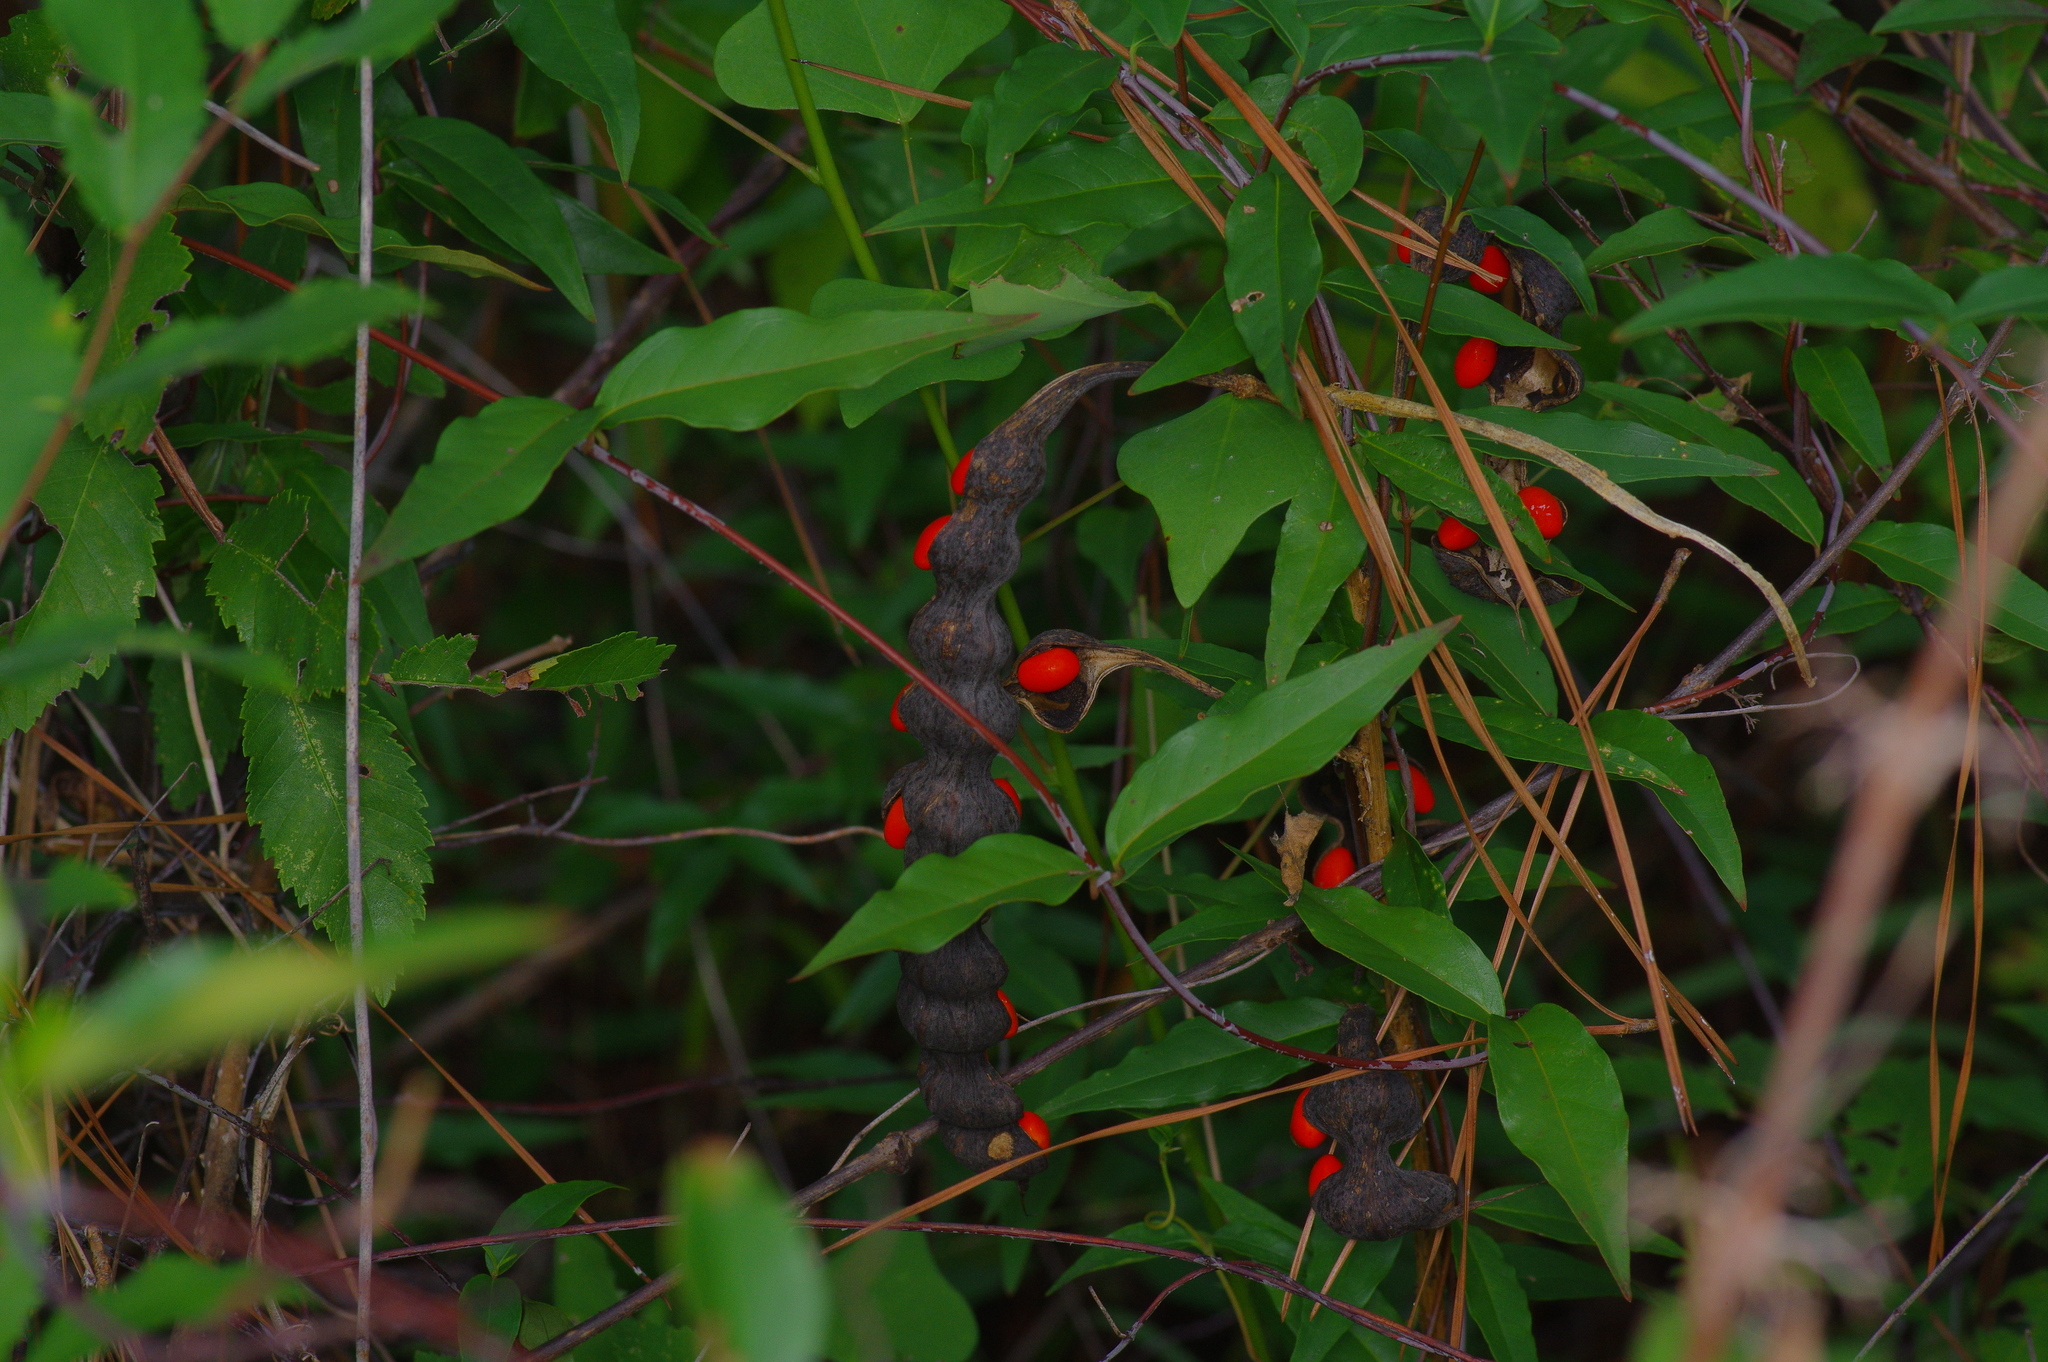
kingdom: Plantae
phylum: Tracheophyta
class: Magnoliopsida
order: Fabales
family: Fabaceae
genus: Erythrina
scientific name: Erythrina herbacea
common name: Coral-bean
